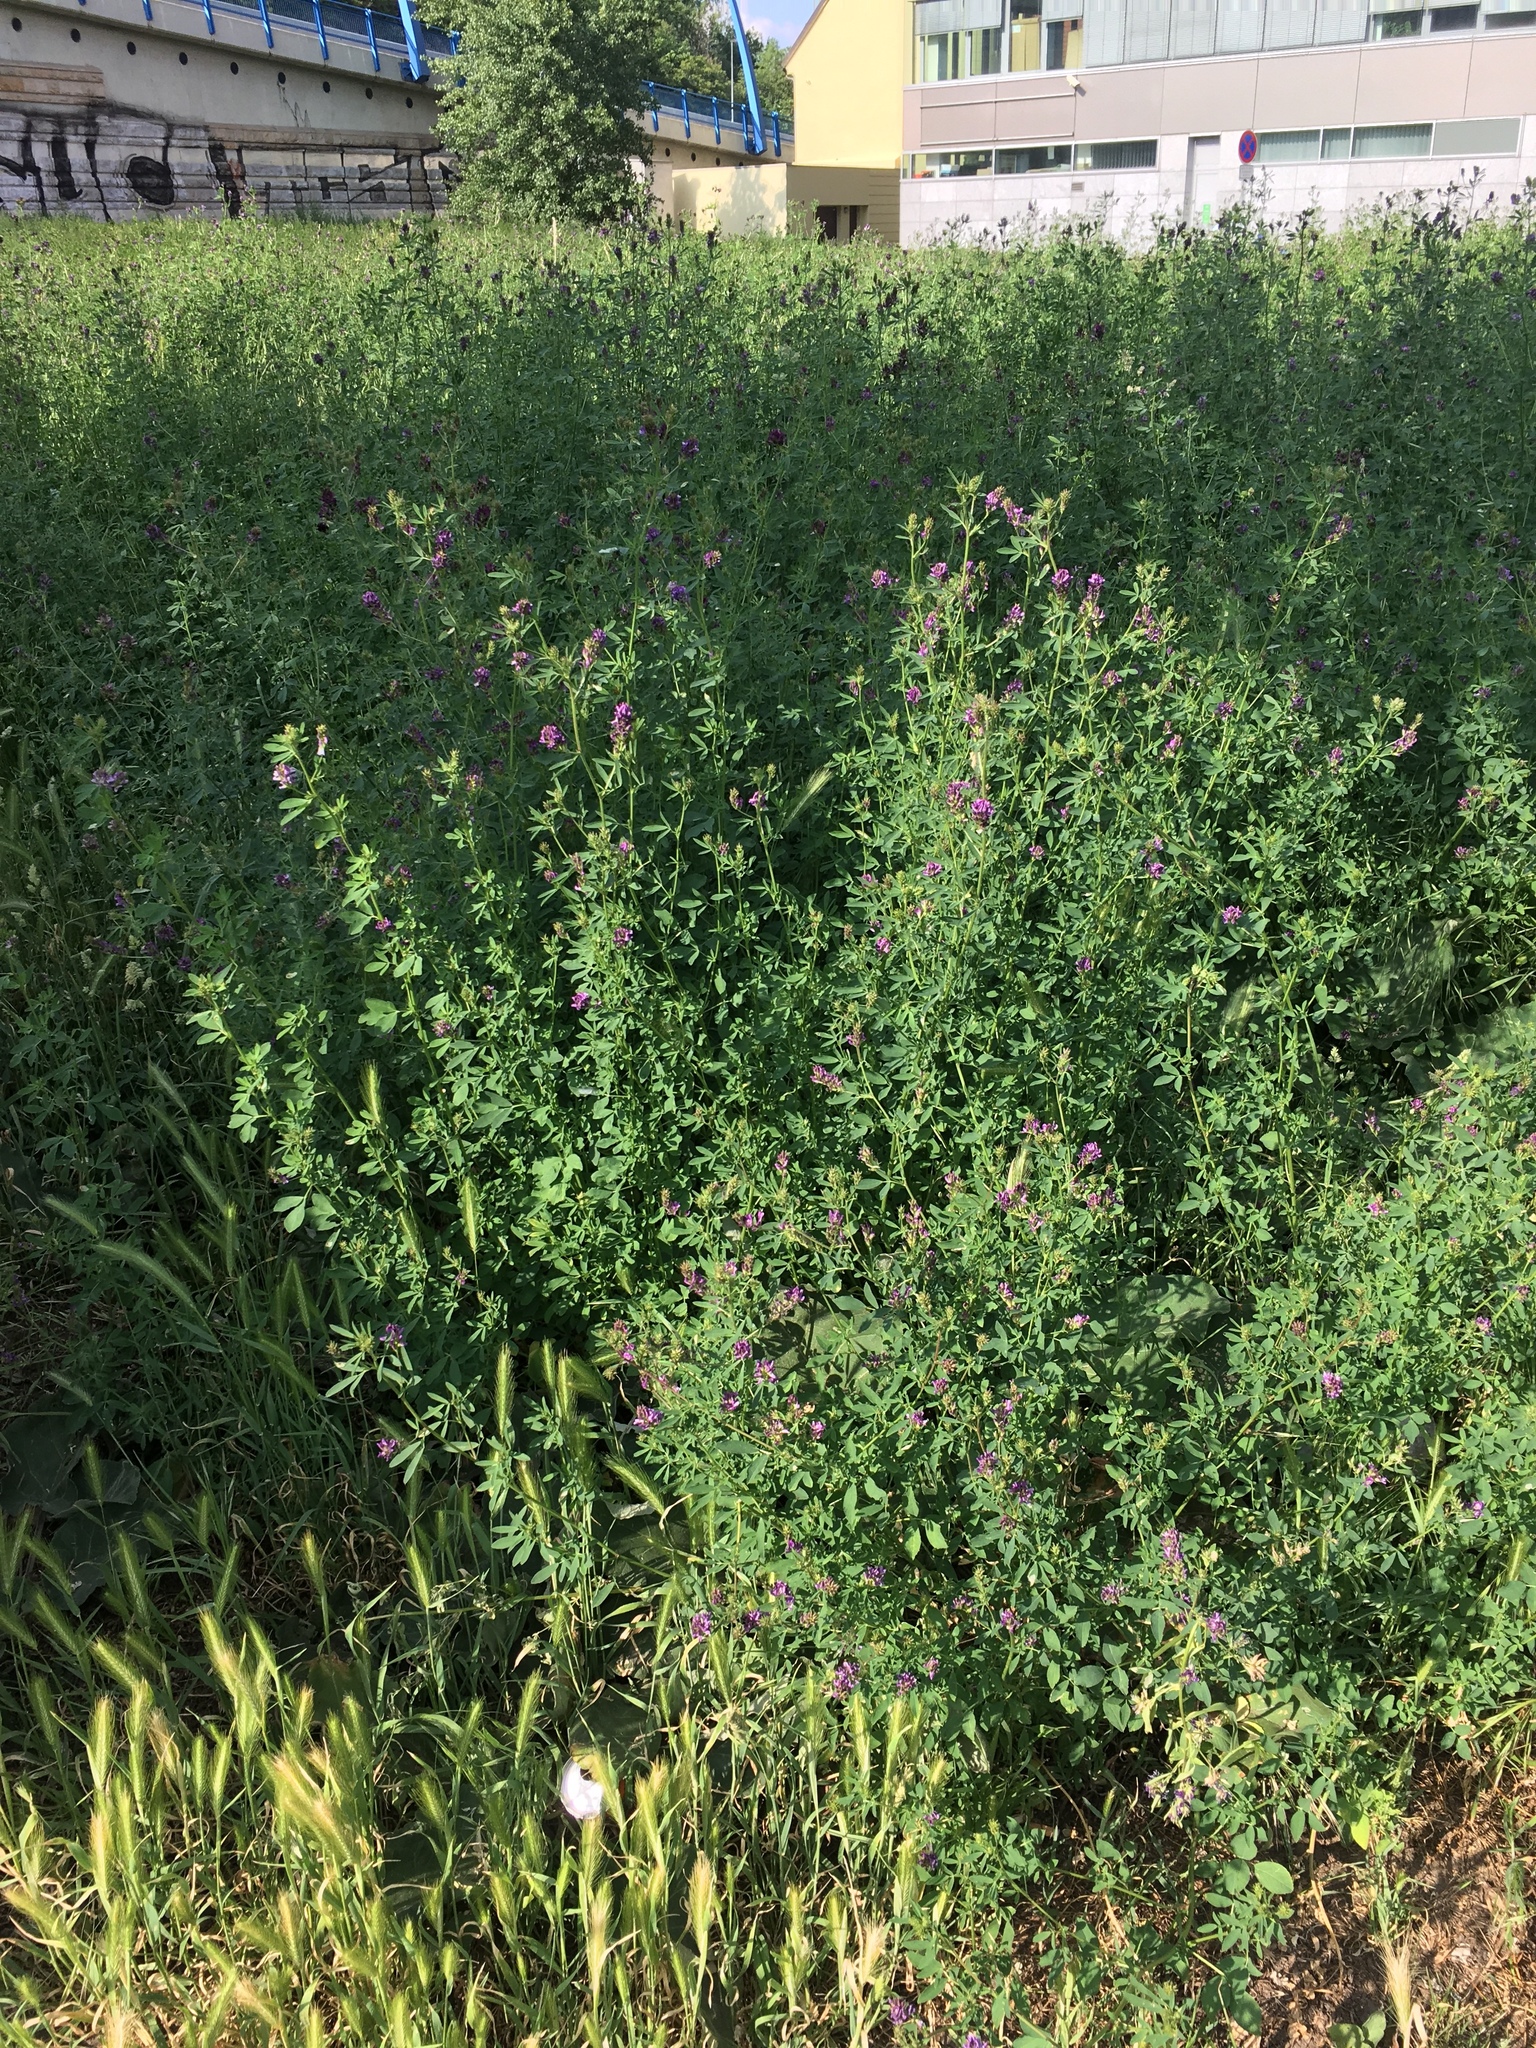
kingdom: Plantae
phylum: Tracheophyta
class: Magnoliopsida
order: Fabales
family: Fabaceae
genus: Medicago
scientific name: Medicago sativa
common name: Alfalfa
